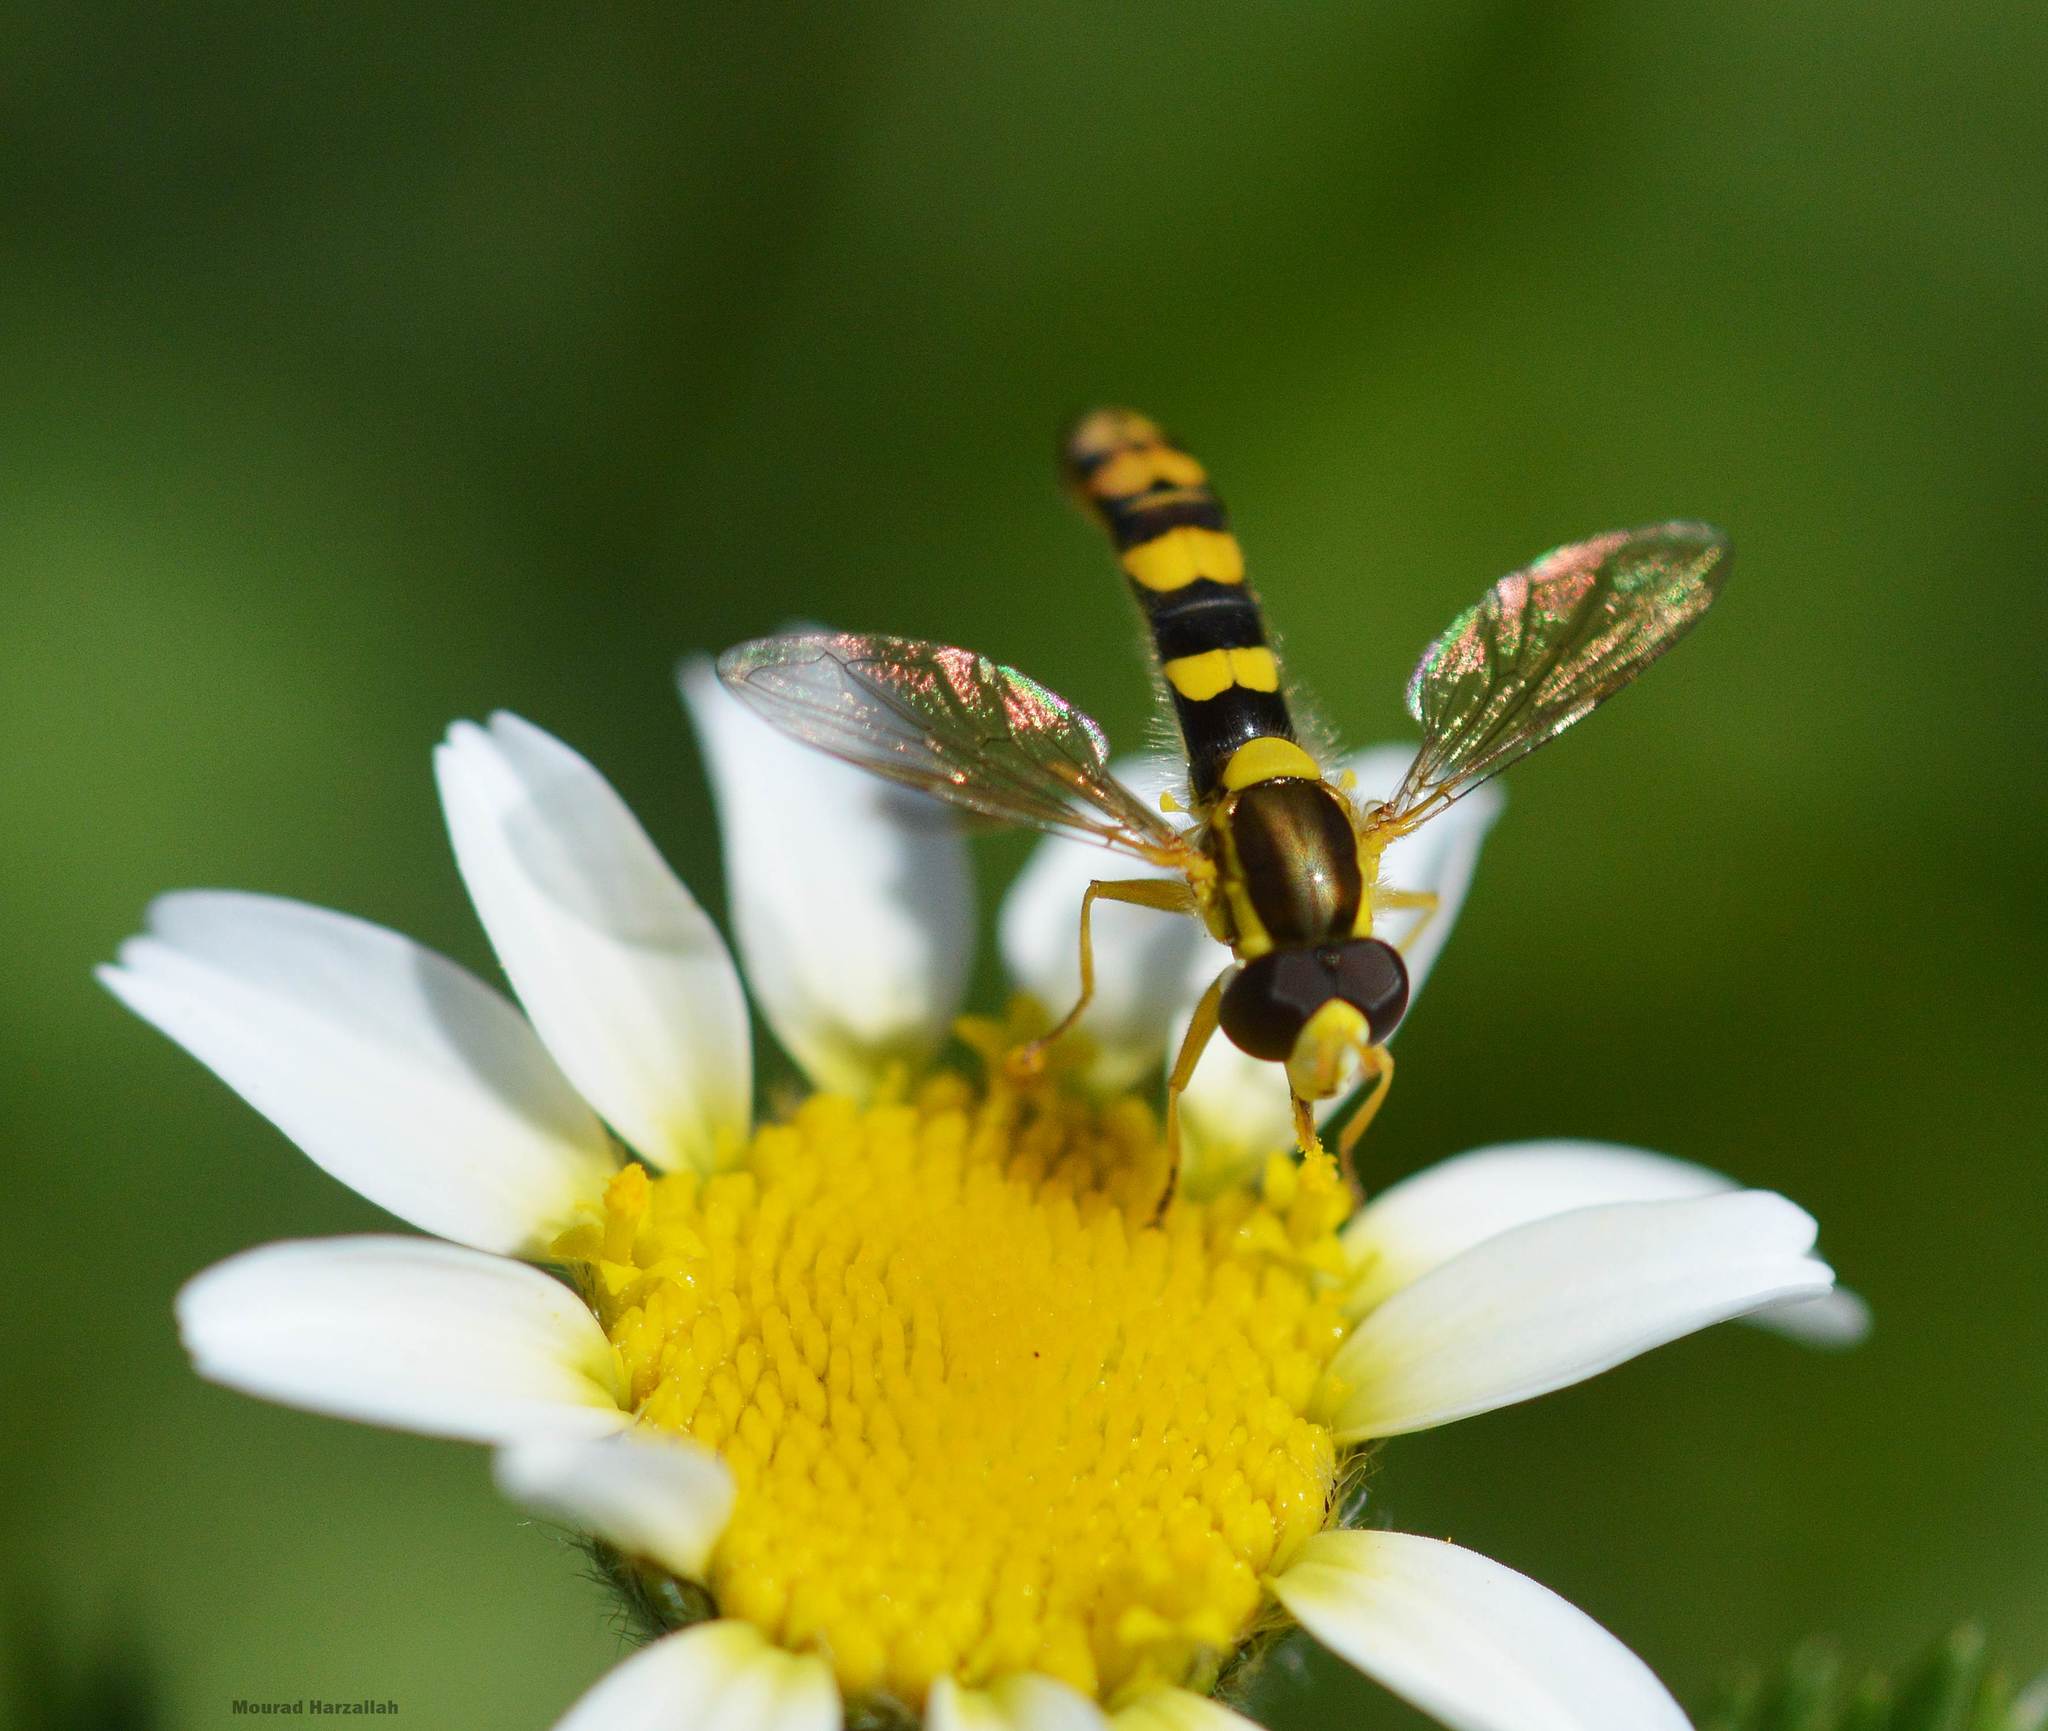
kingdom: Animalia
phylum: Arthropoda
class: Insecta
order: Diptera
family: Syrphidae
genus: Sphaerophoria
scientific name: Sphaerophoria scripta
